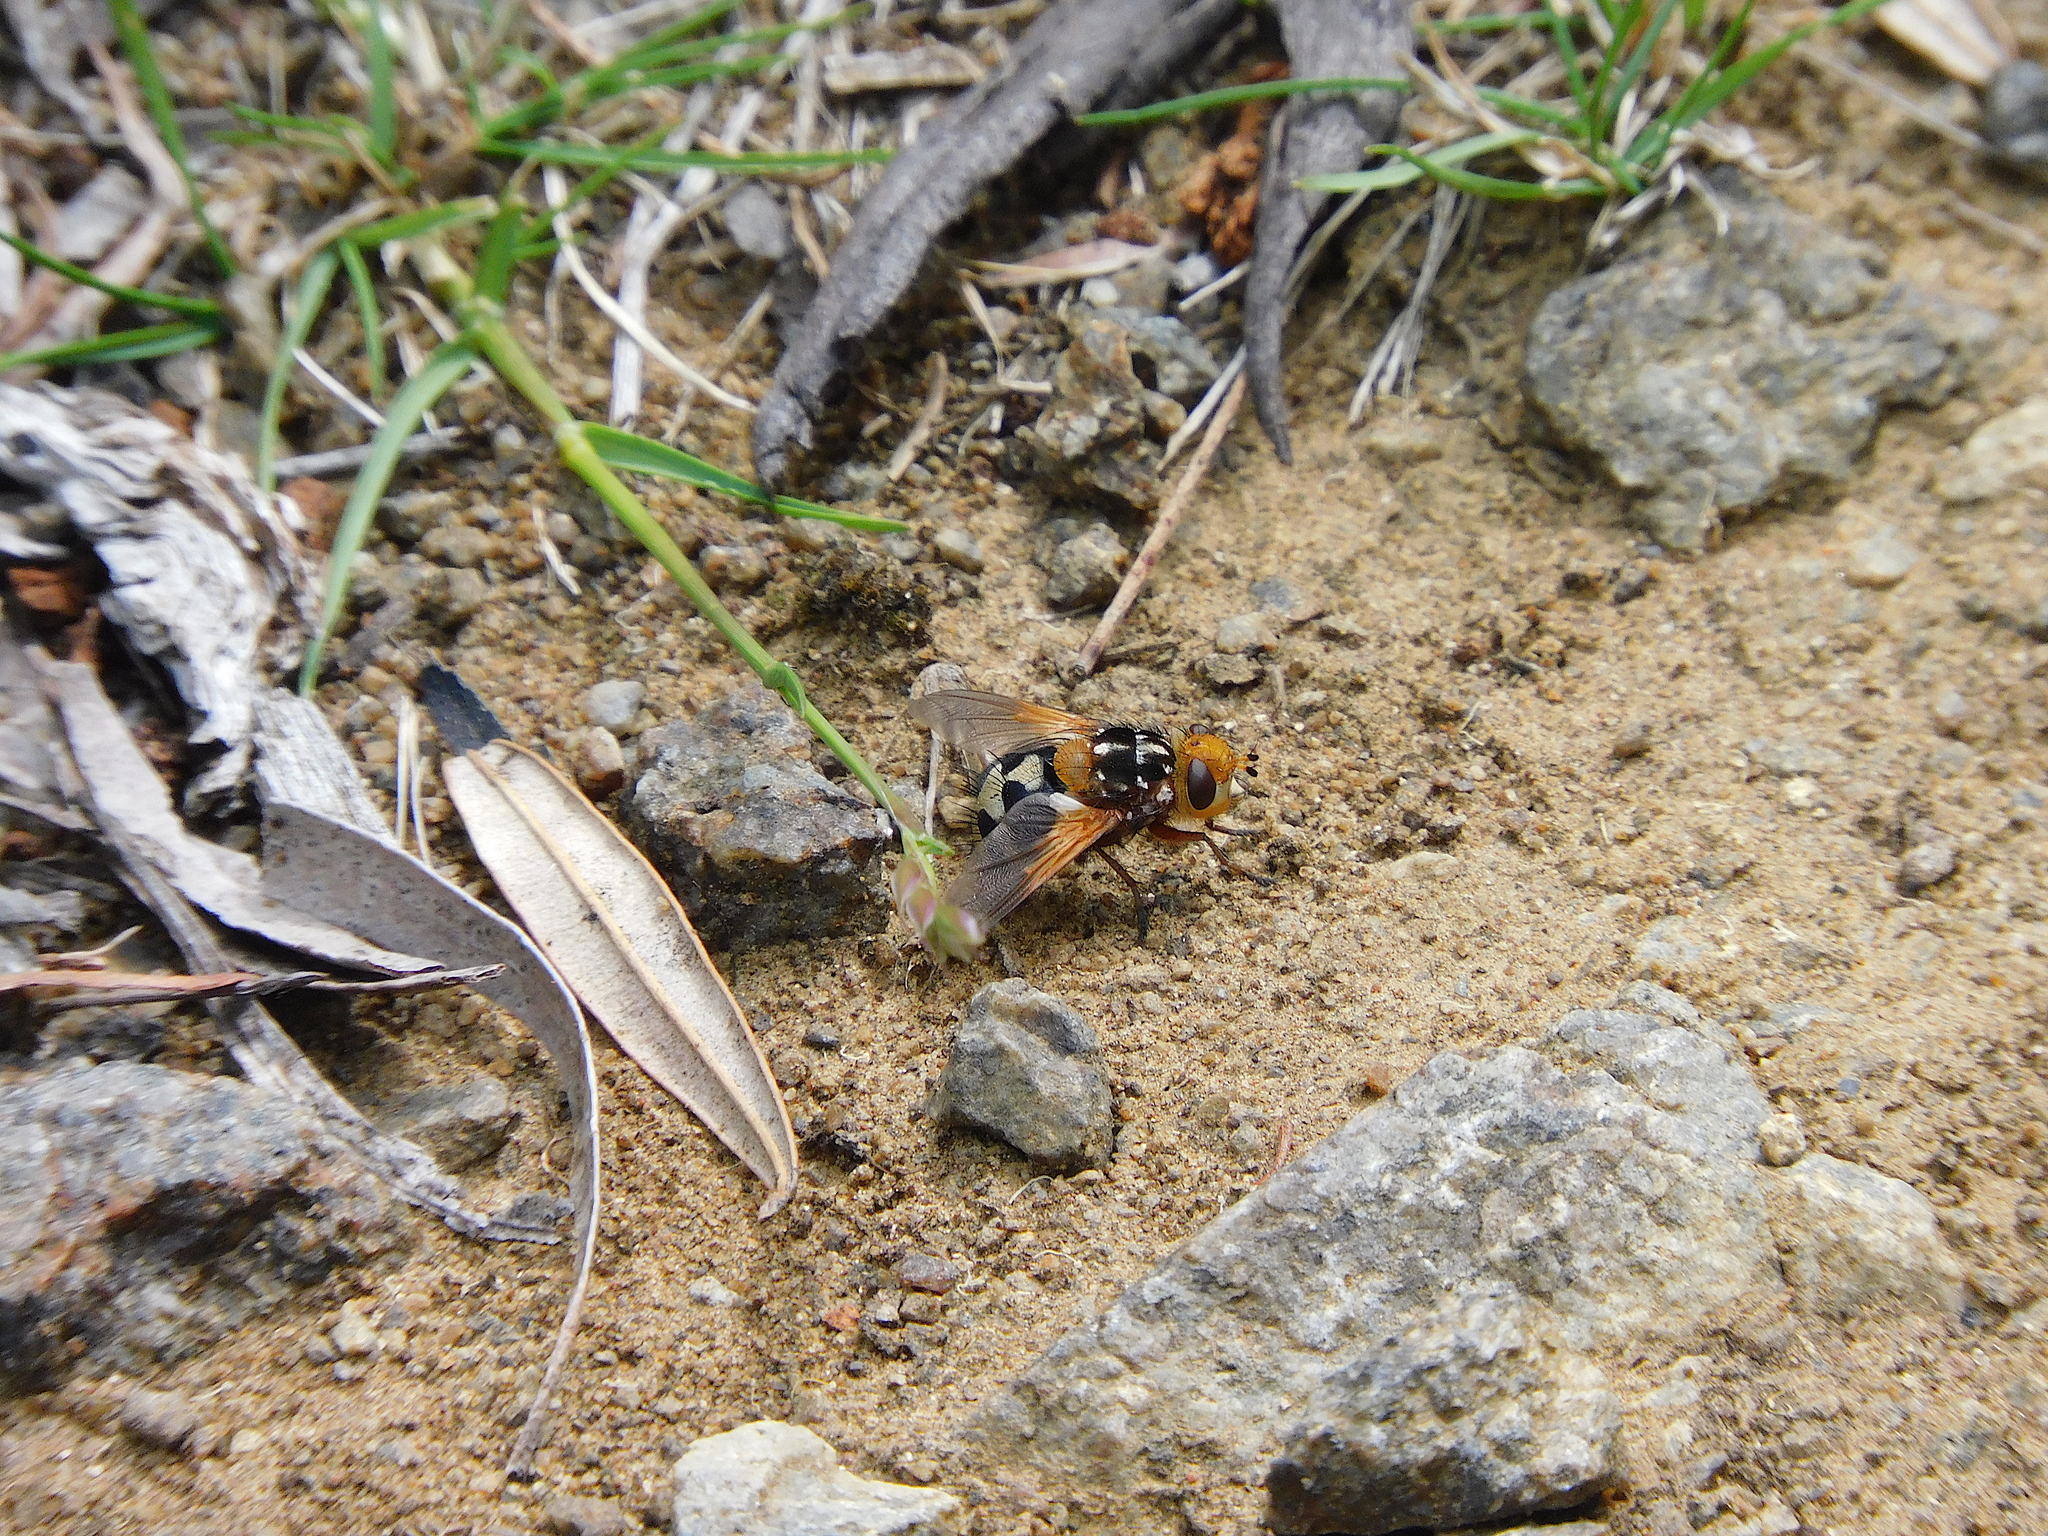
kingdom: Animalia
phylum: Arthropoda
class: Insecta
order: Diptera
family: Tachinidae
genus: Microtropesa
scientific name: Microtropesa nigricornis
